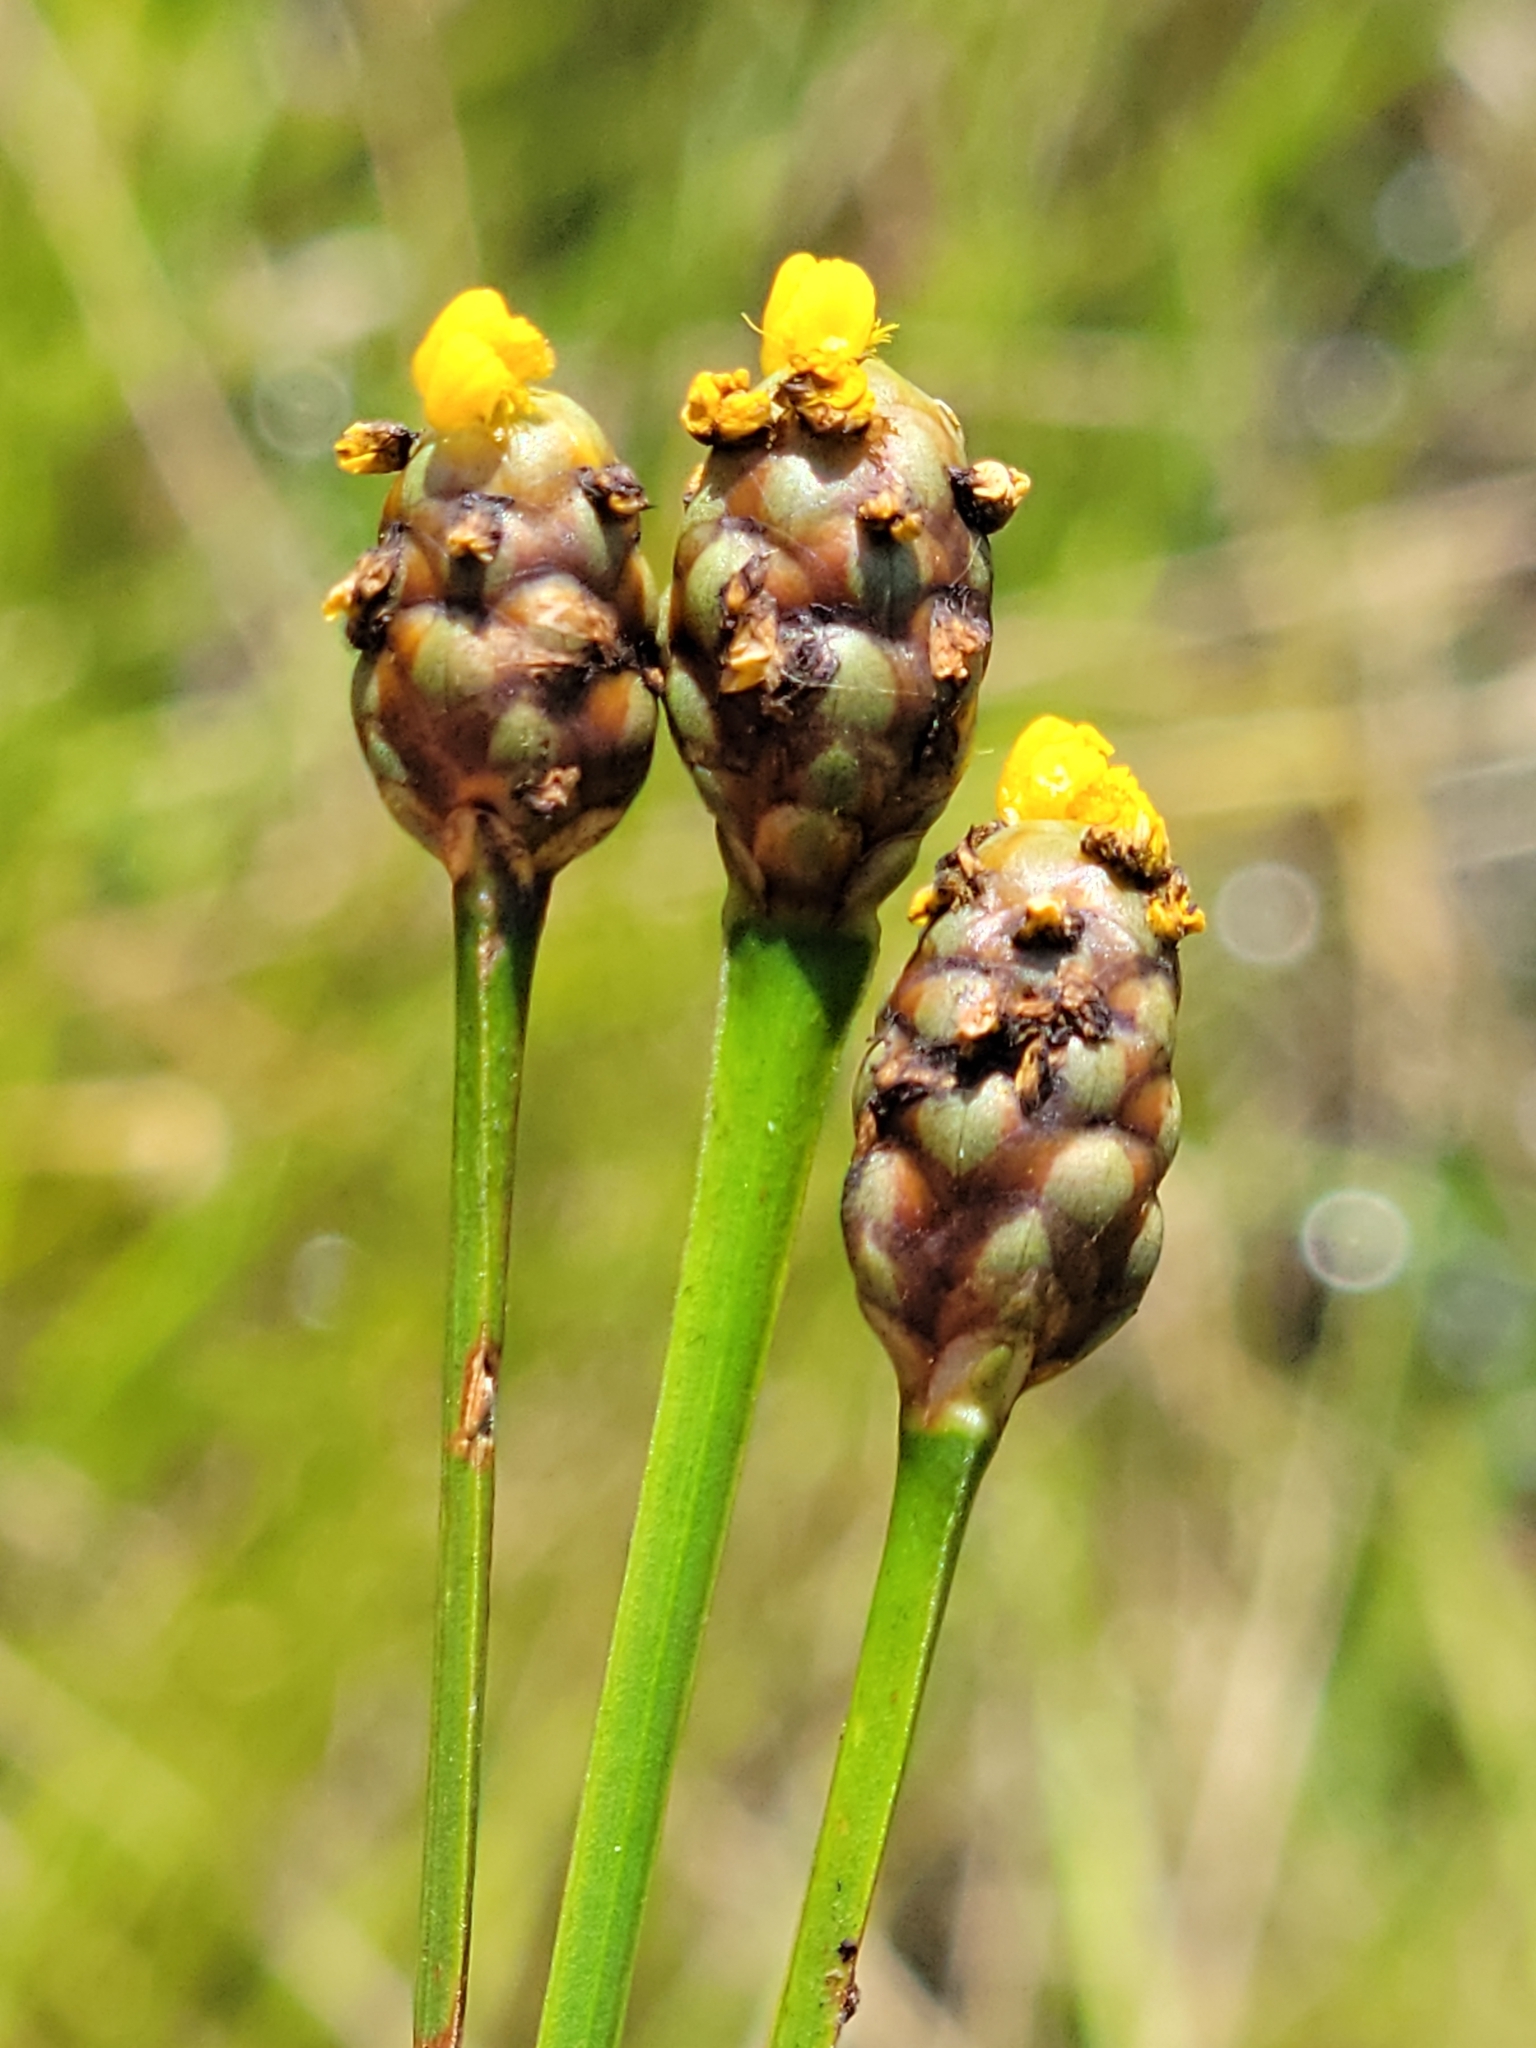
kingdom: Plantae
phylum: Tracheophyta
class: Liliopsida
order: Poales
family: Xyridaceae
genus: Xyris
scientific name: Xyris jupicai
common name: Richard's yelloweyed grass
